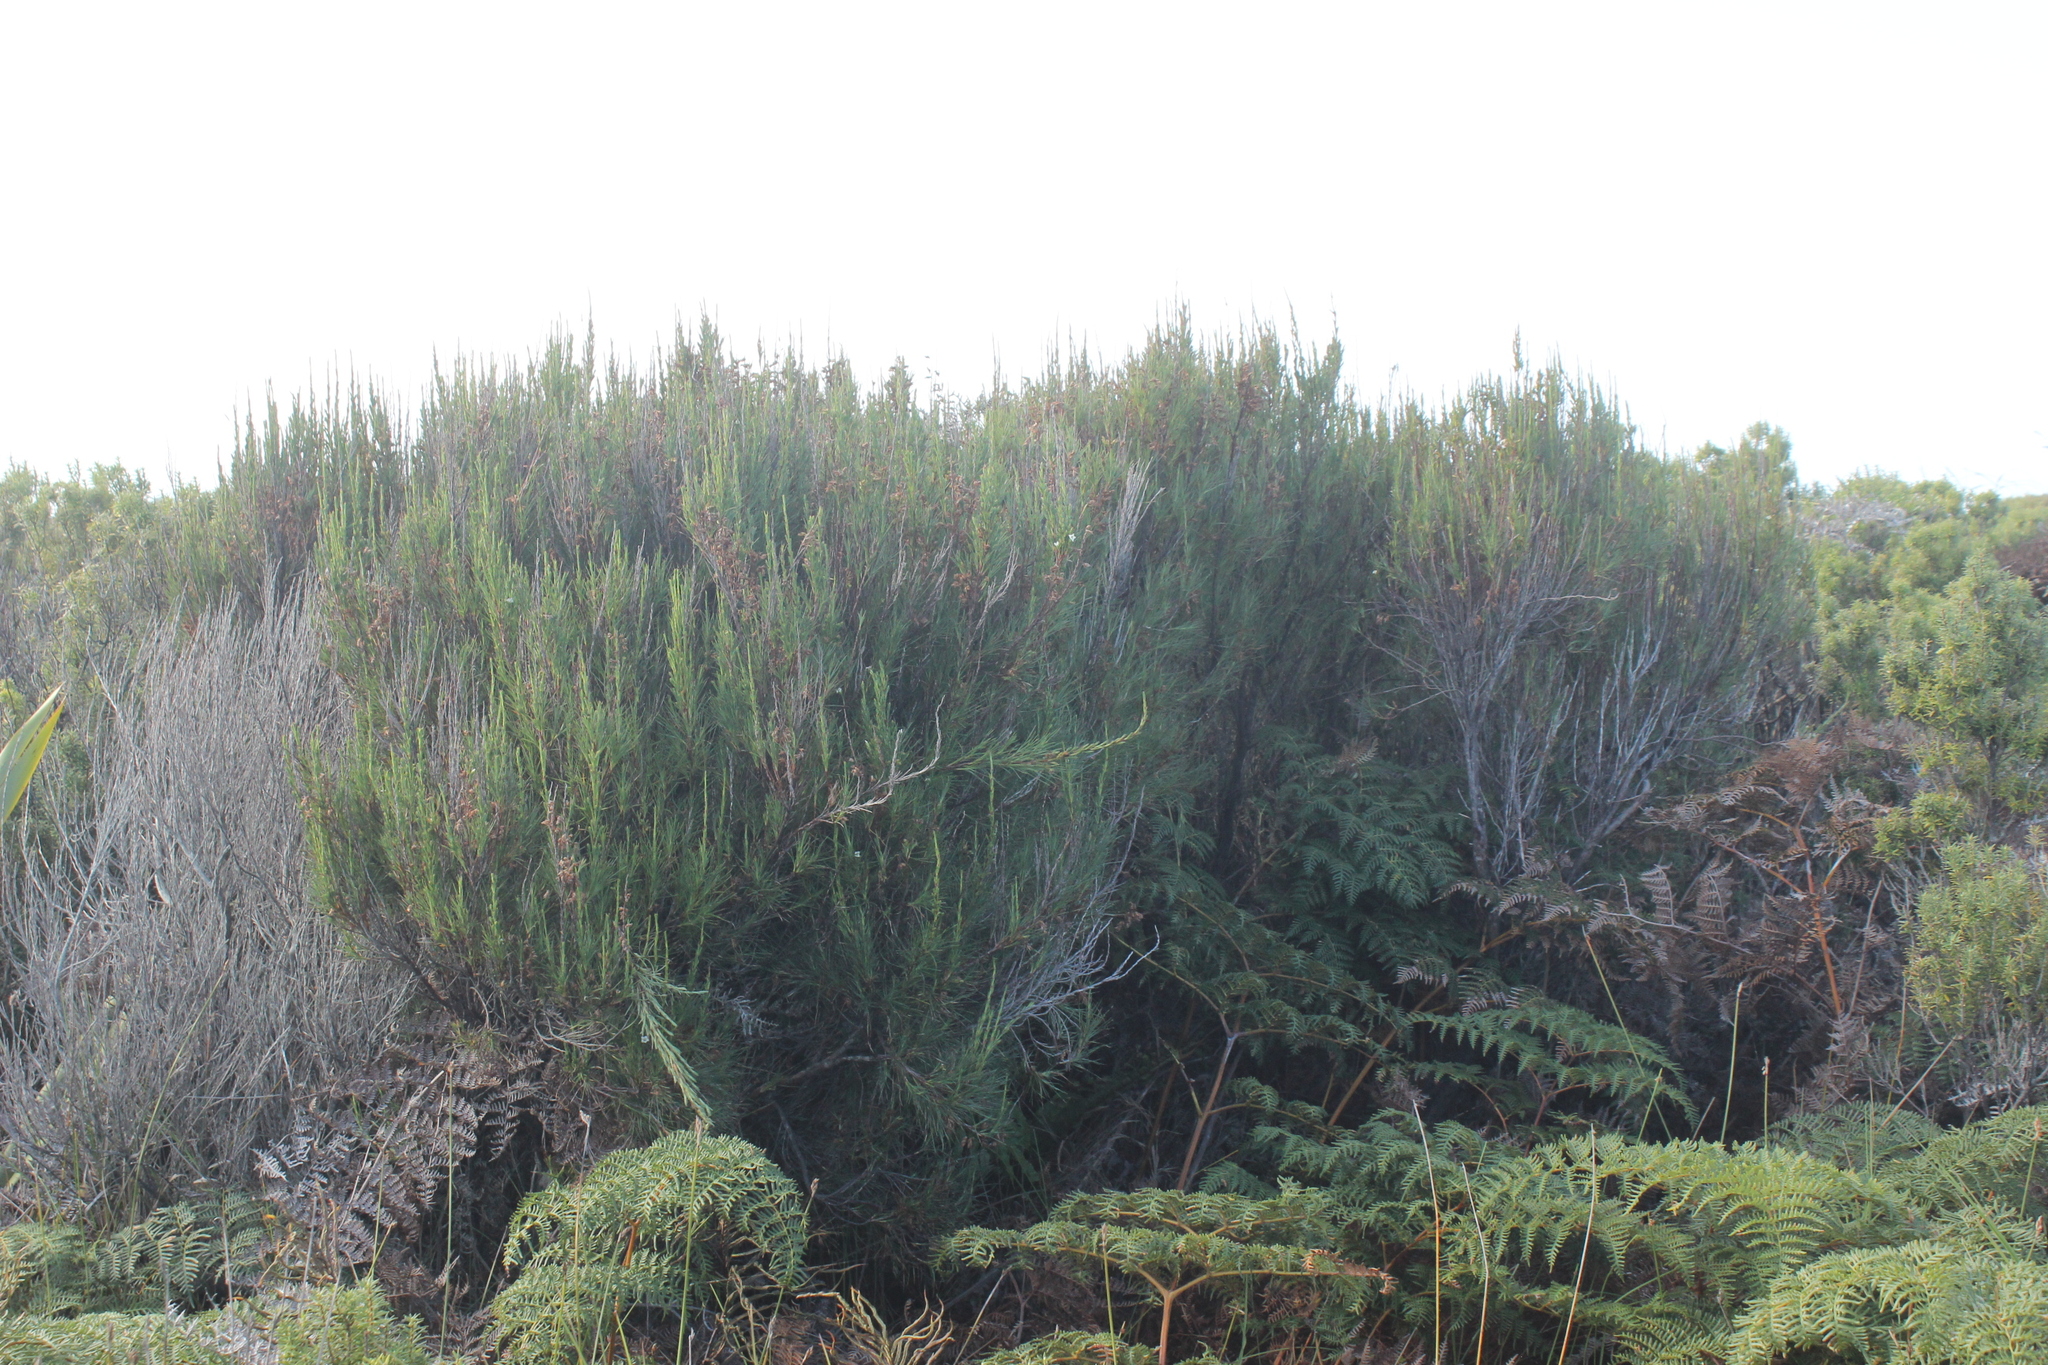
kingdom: Plantae
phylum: Tracheophyta
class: Magnoliopsida
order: Ericales
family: Ericaceae
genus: Dracophyllum
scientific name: Dracophyllum scoparium
